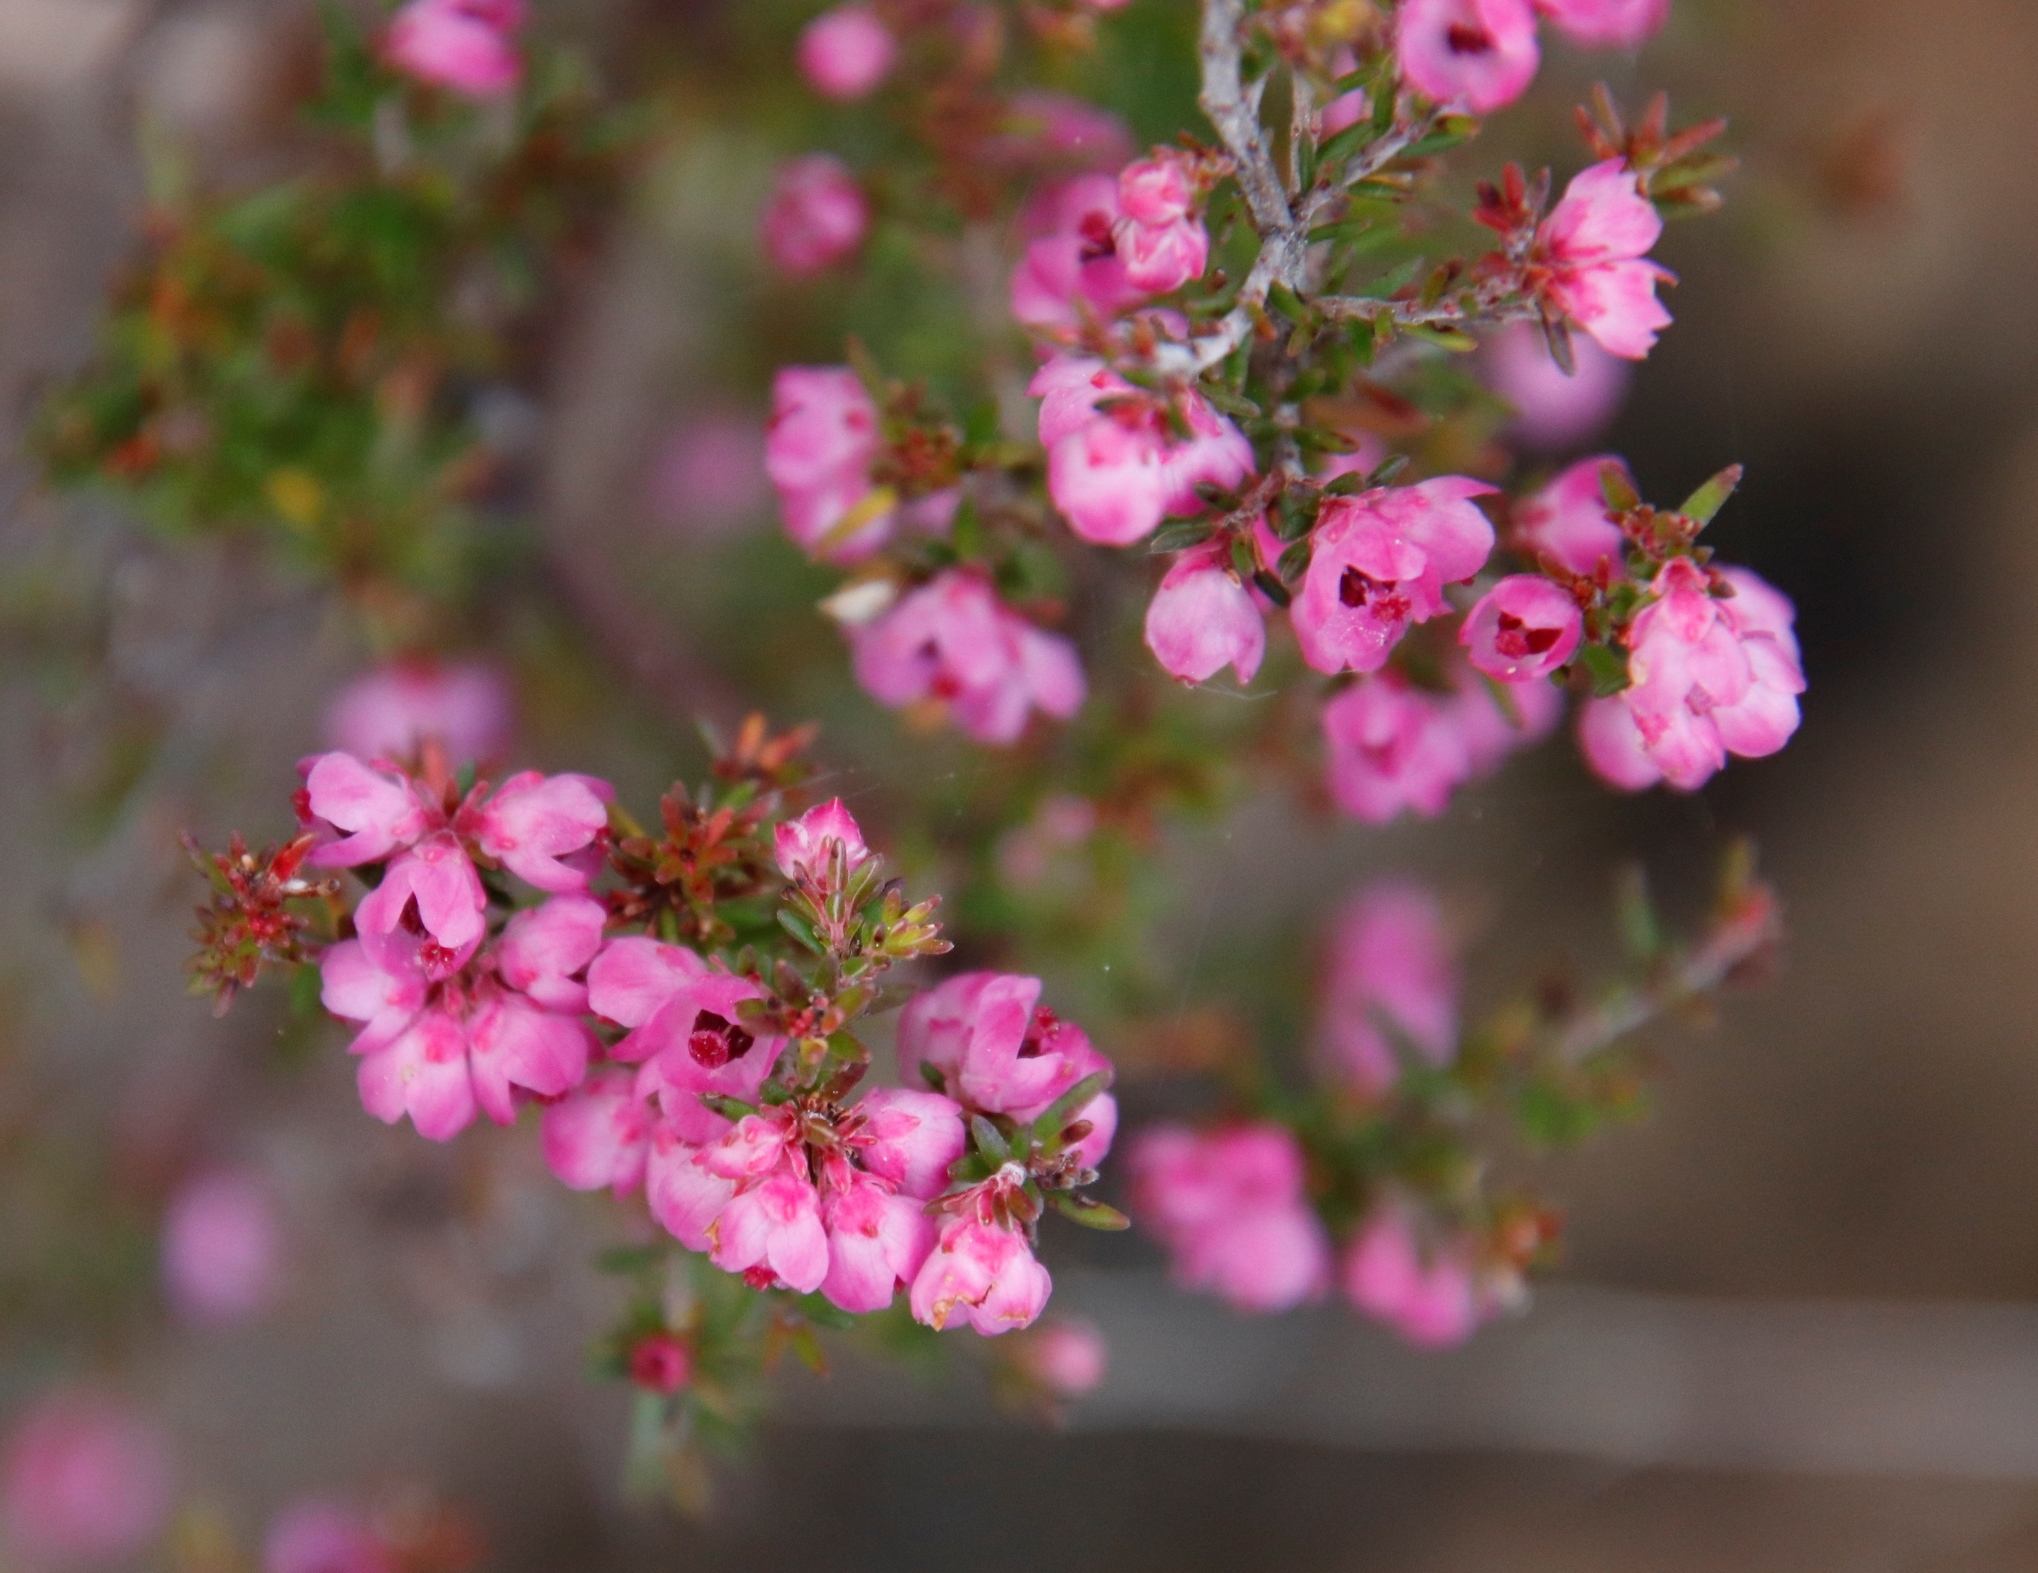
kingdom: Plantae
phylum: Tracheophyta
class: Magnoliopsida
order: Ericales
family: Ericaceae
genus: Erica
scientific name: Erica cristiflora
